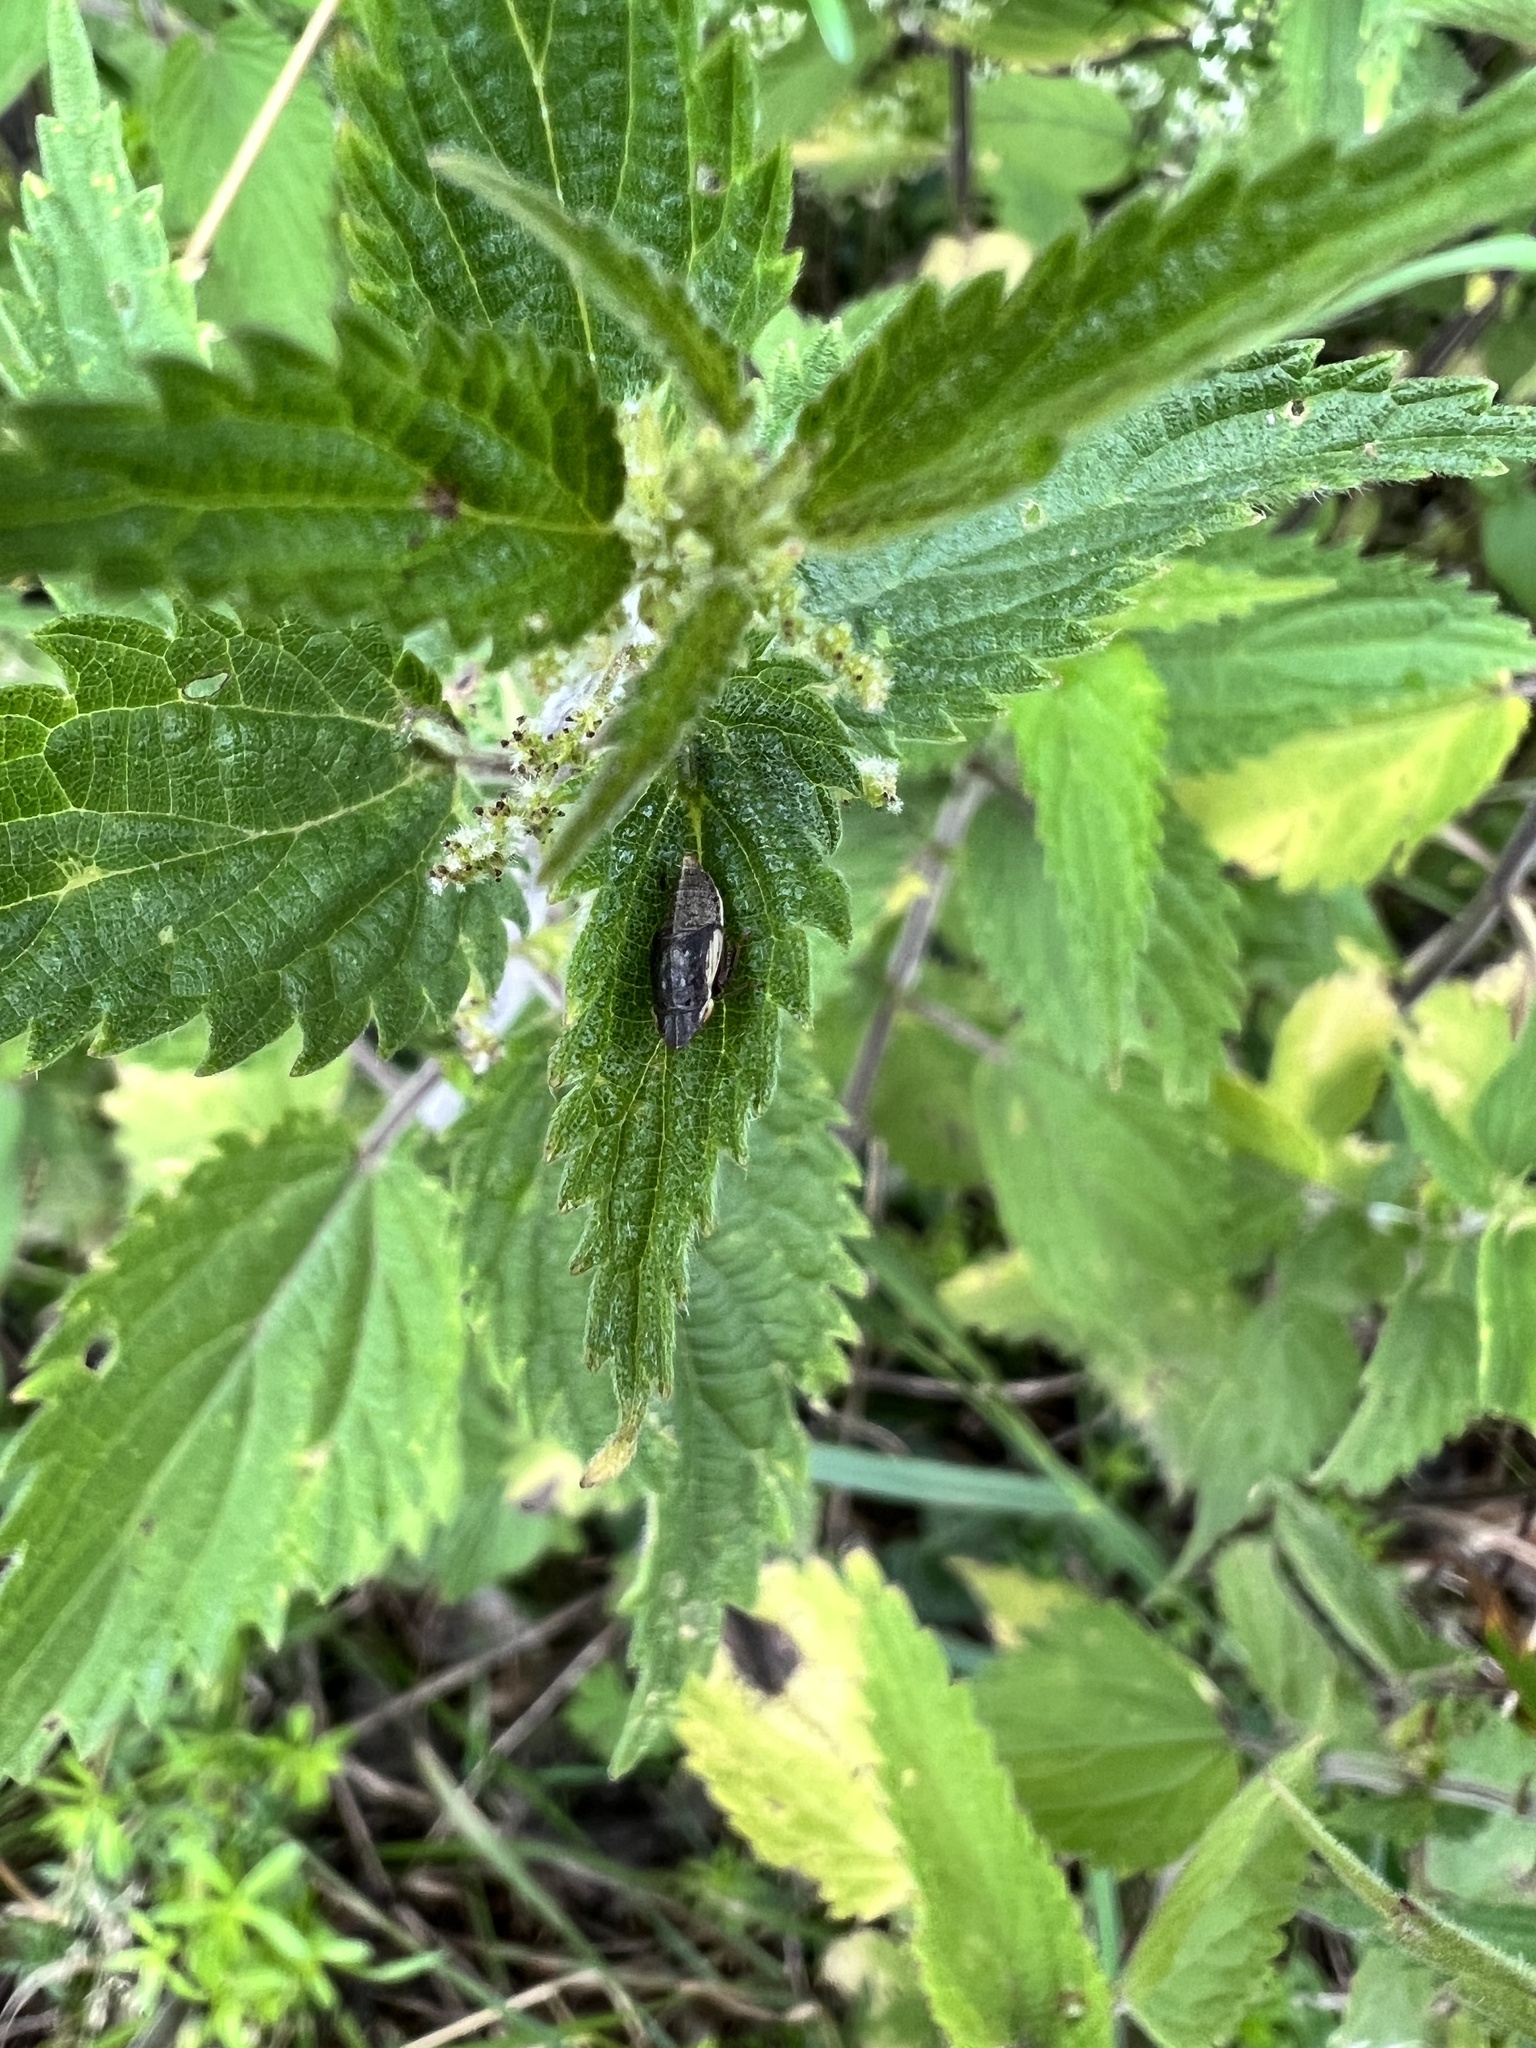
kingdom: Animalia
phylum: Arthropoda
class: Insecta
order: Hemiptera
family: Cicadellidae
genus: Aphrodes
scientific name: Aphrodes makarovi
